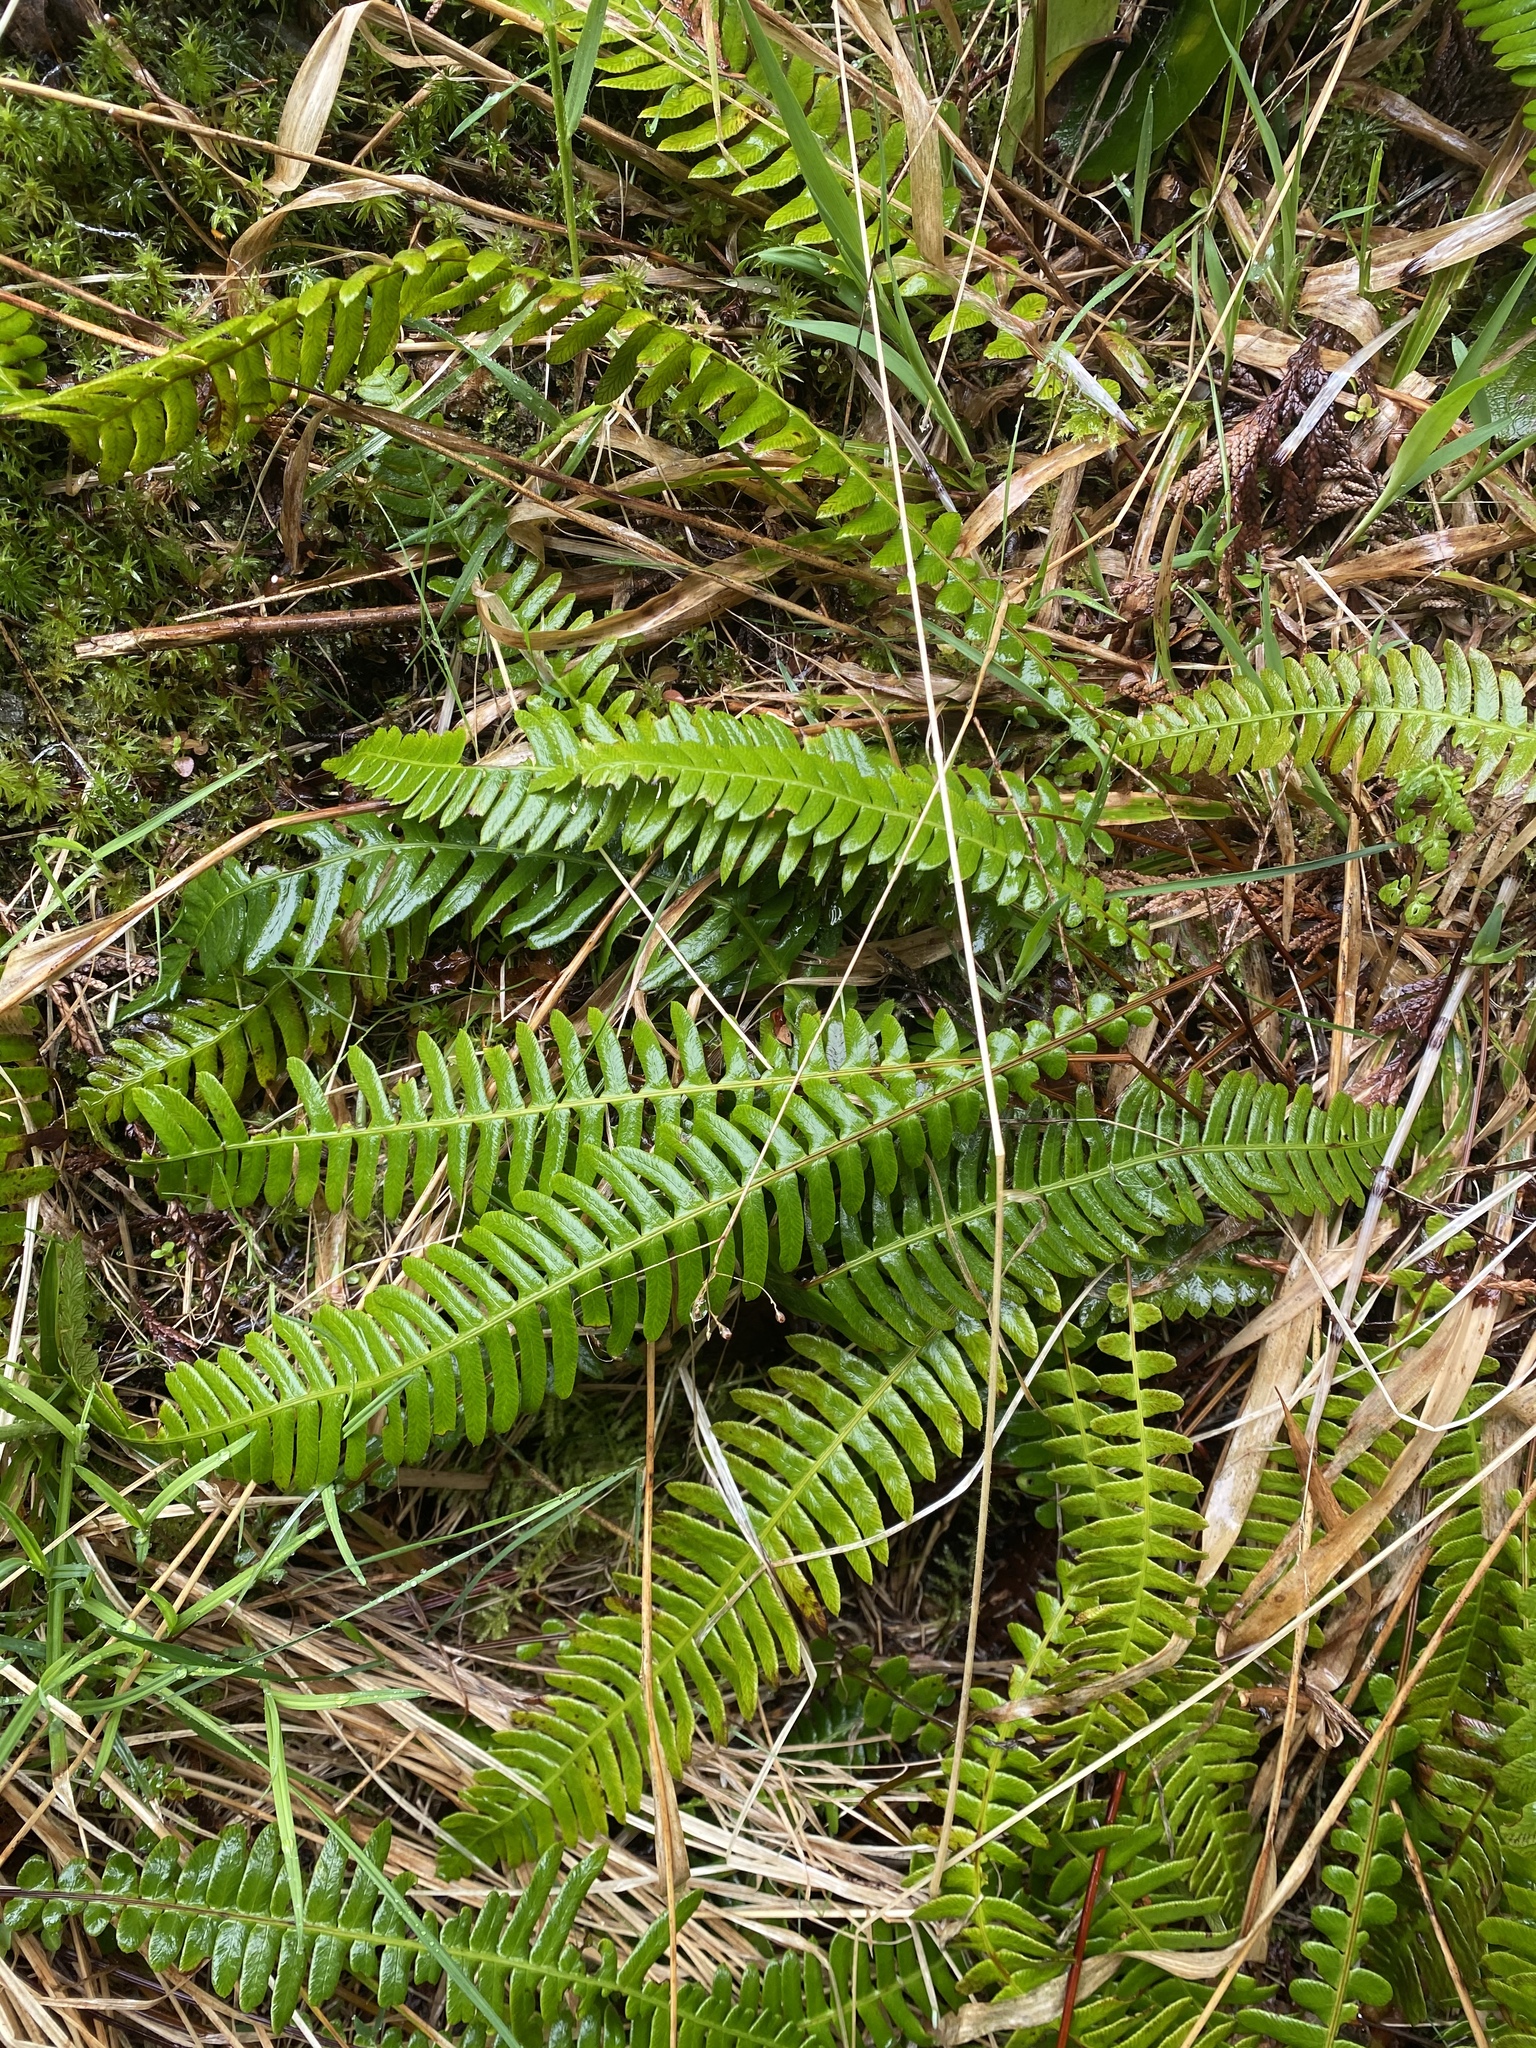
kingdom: Plantae
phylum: Tracheophyta
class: Polypodiopsida
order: Polypodiales
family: Blechnaceae
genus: Struthiopteris
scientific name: Struthiopteris spicant
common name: Deer fern
